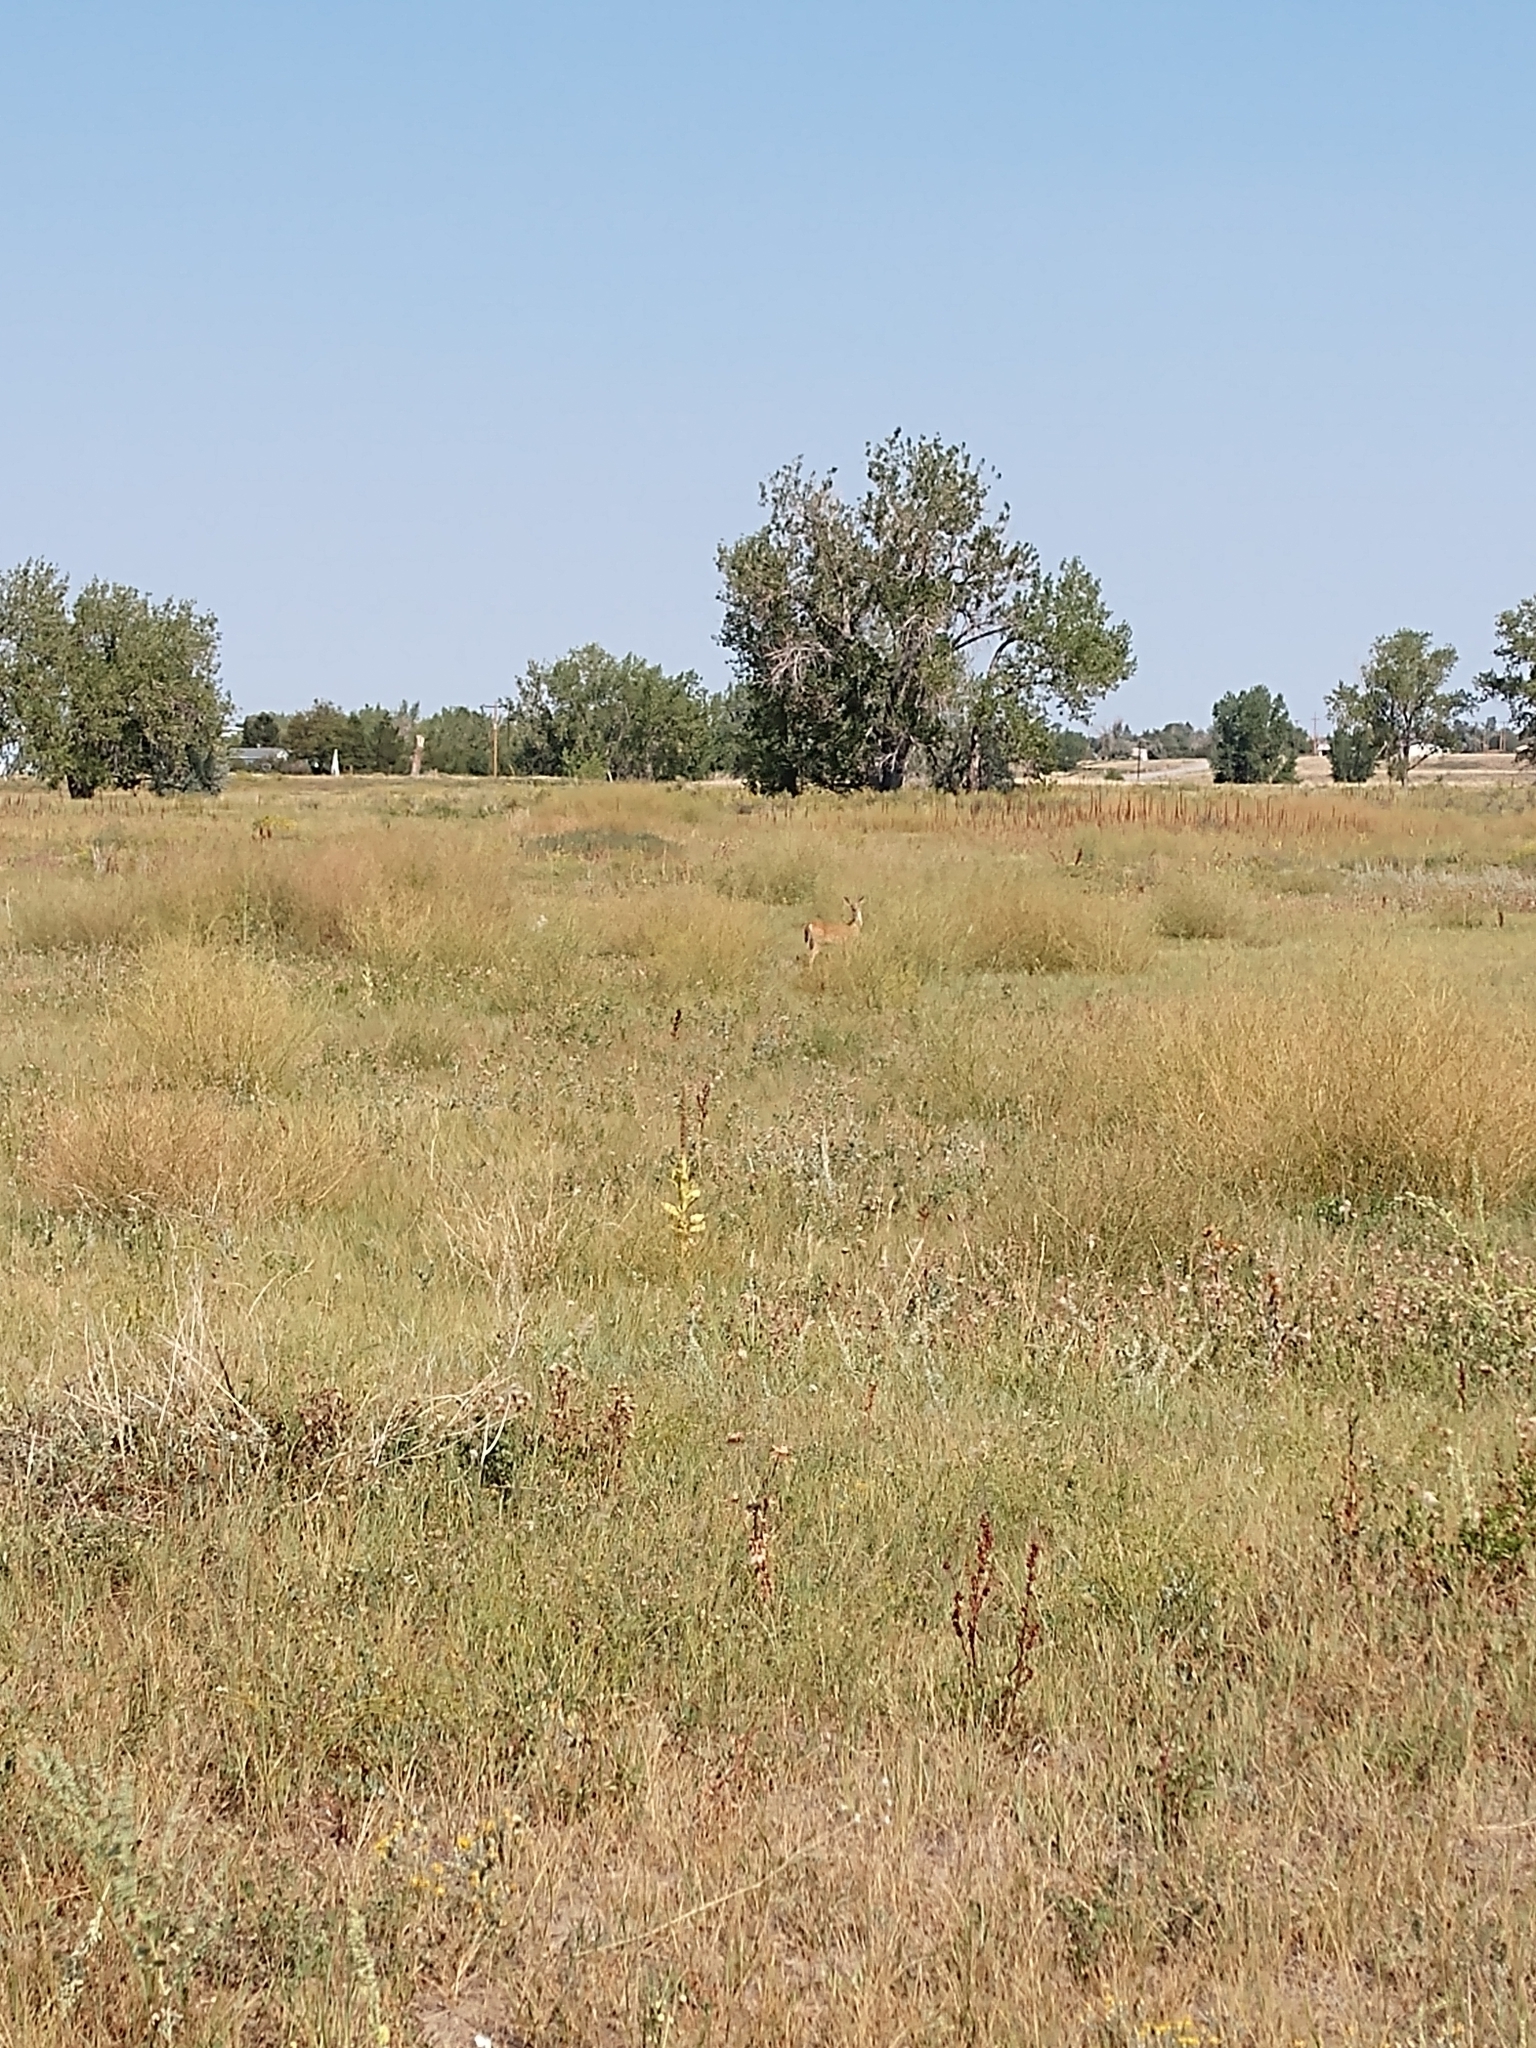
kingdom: Animalia
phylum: Chordata
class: Mammalia
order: Artiodactyla
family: Cervidae
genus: Odocoileus
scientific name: Odocoileus virginianus
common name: White-tailed deer
